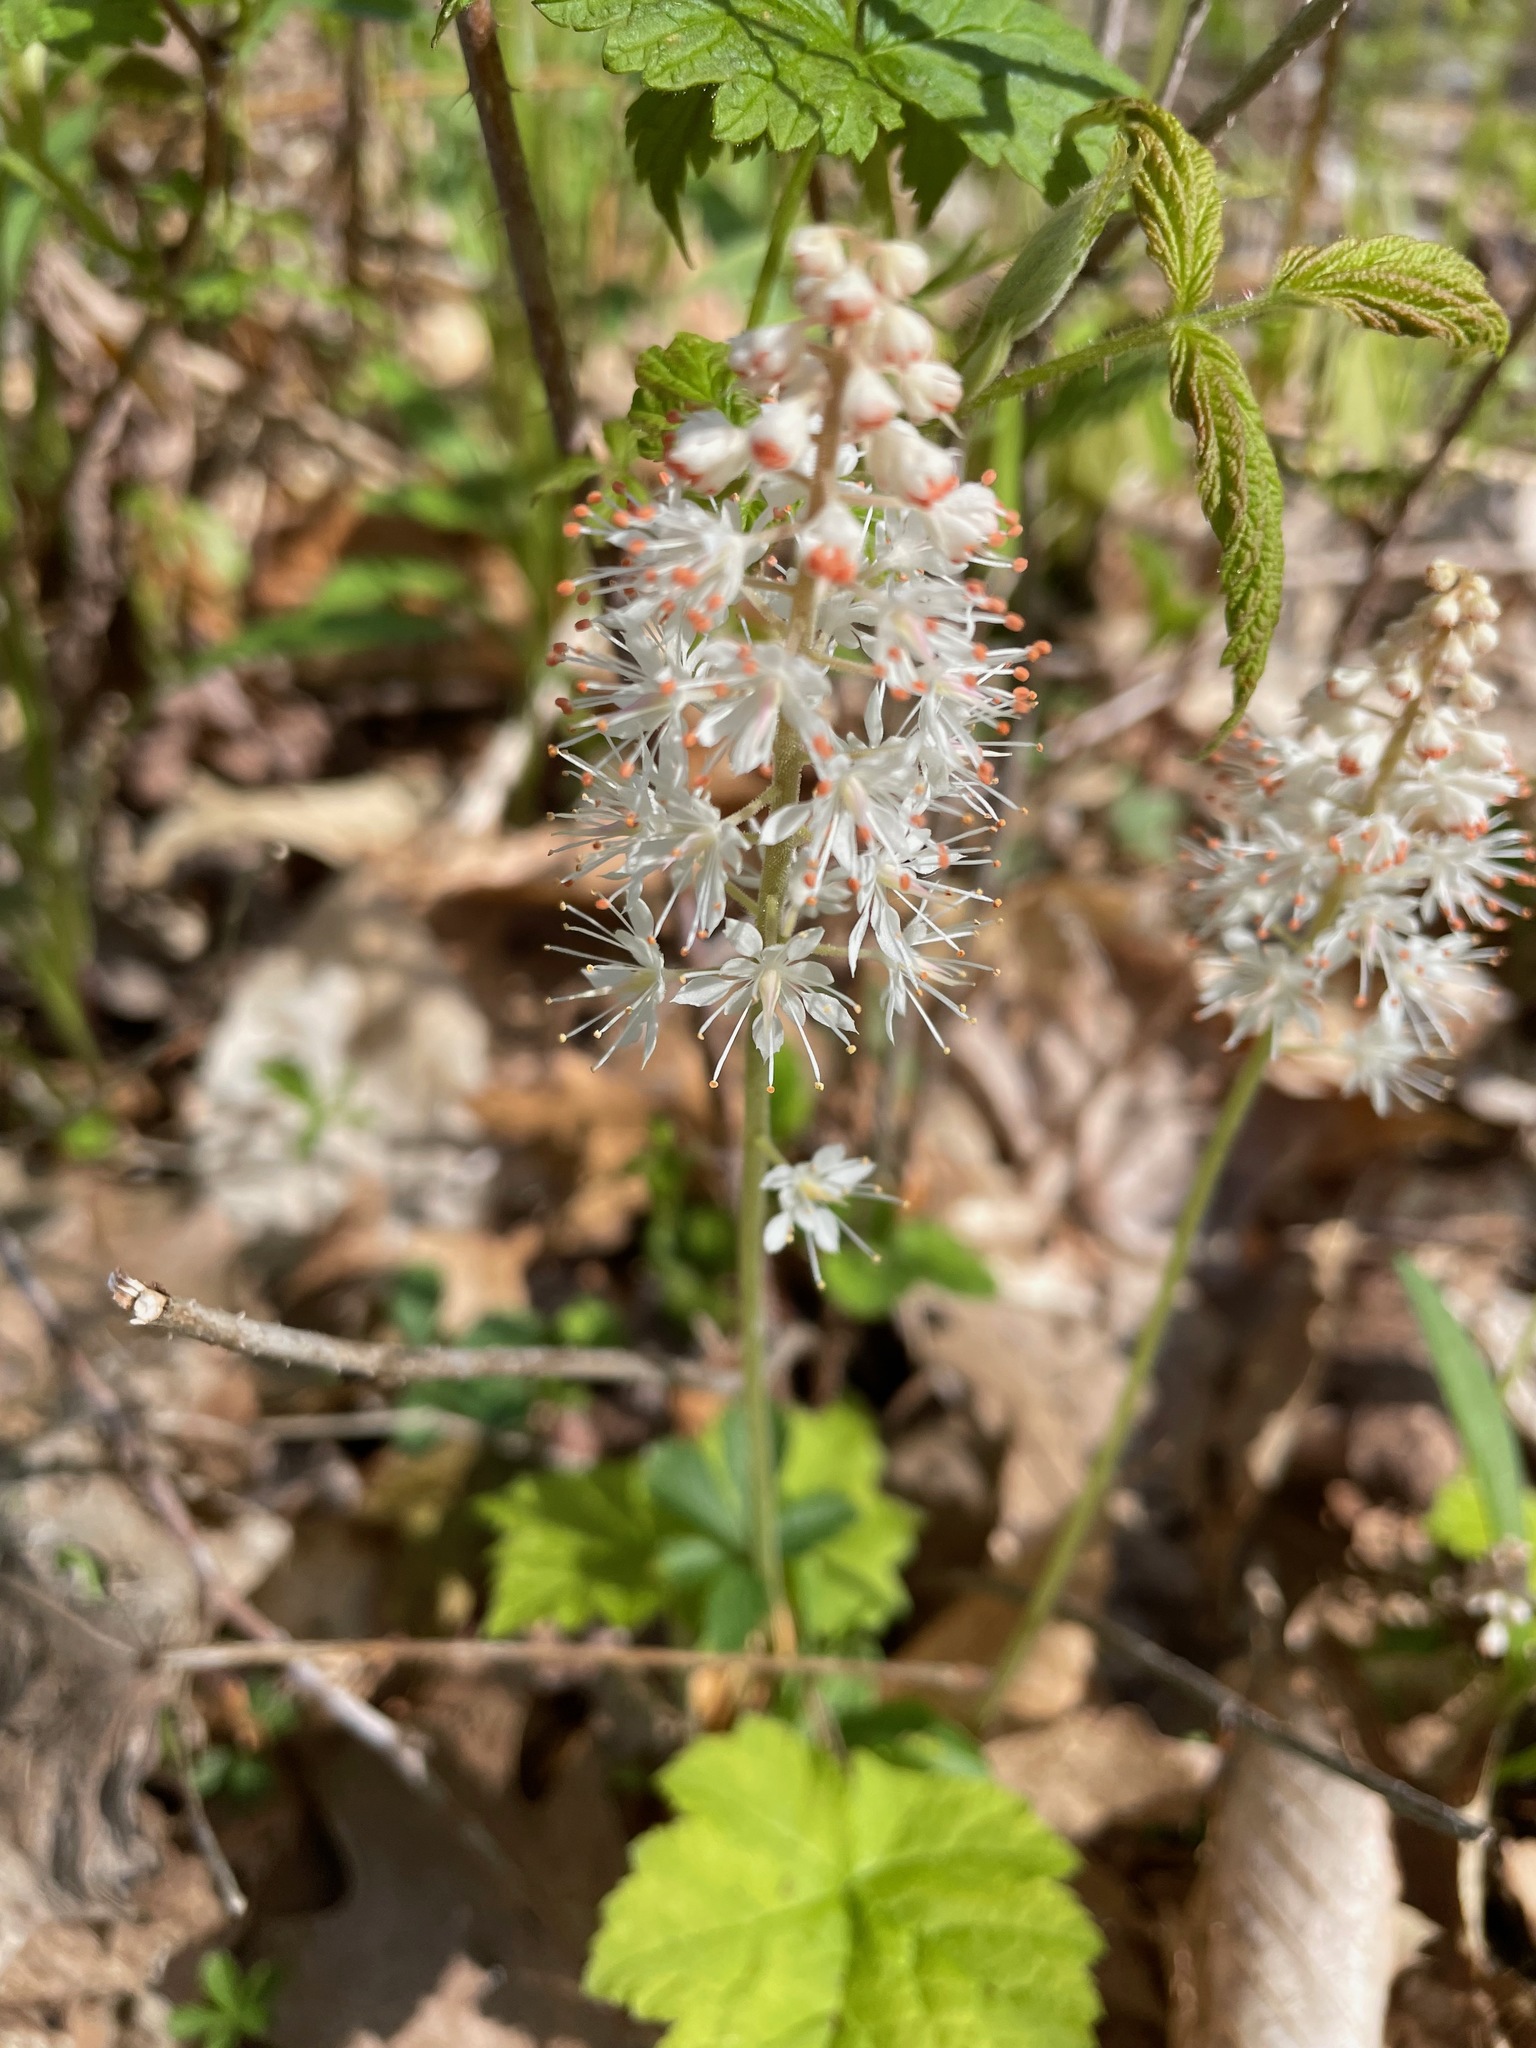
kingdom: Plantae
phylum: Tracheophyta
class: Magnoliopsida
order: Saxifragales
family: Saxifragaceae
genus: Tiarella
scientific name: Tiarella stolonifera
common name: Stoloniferous foamflower
